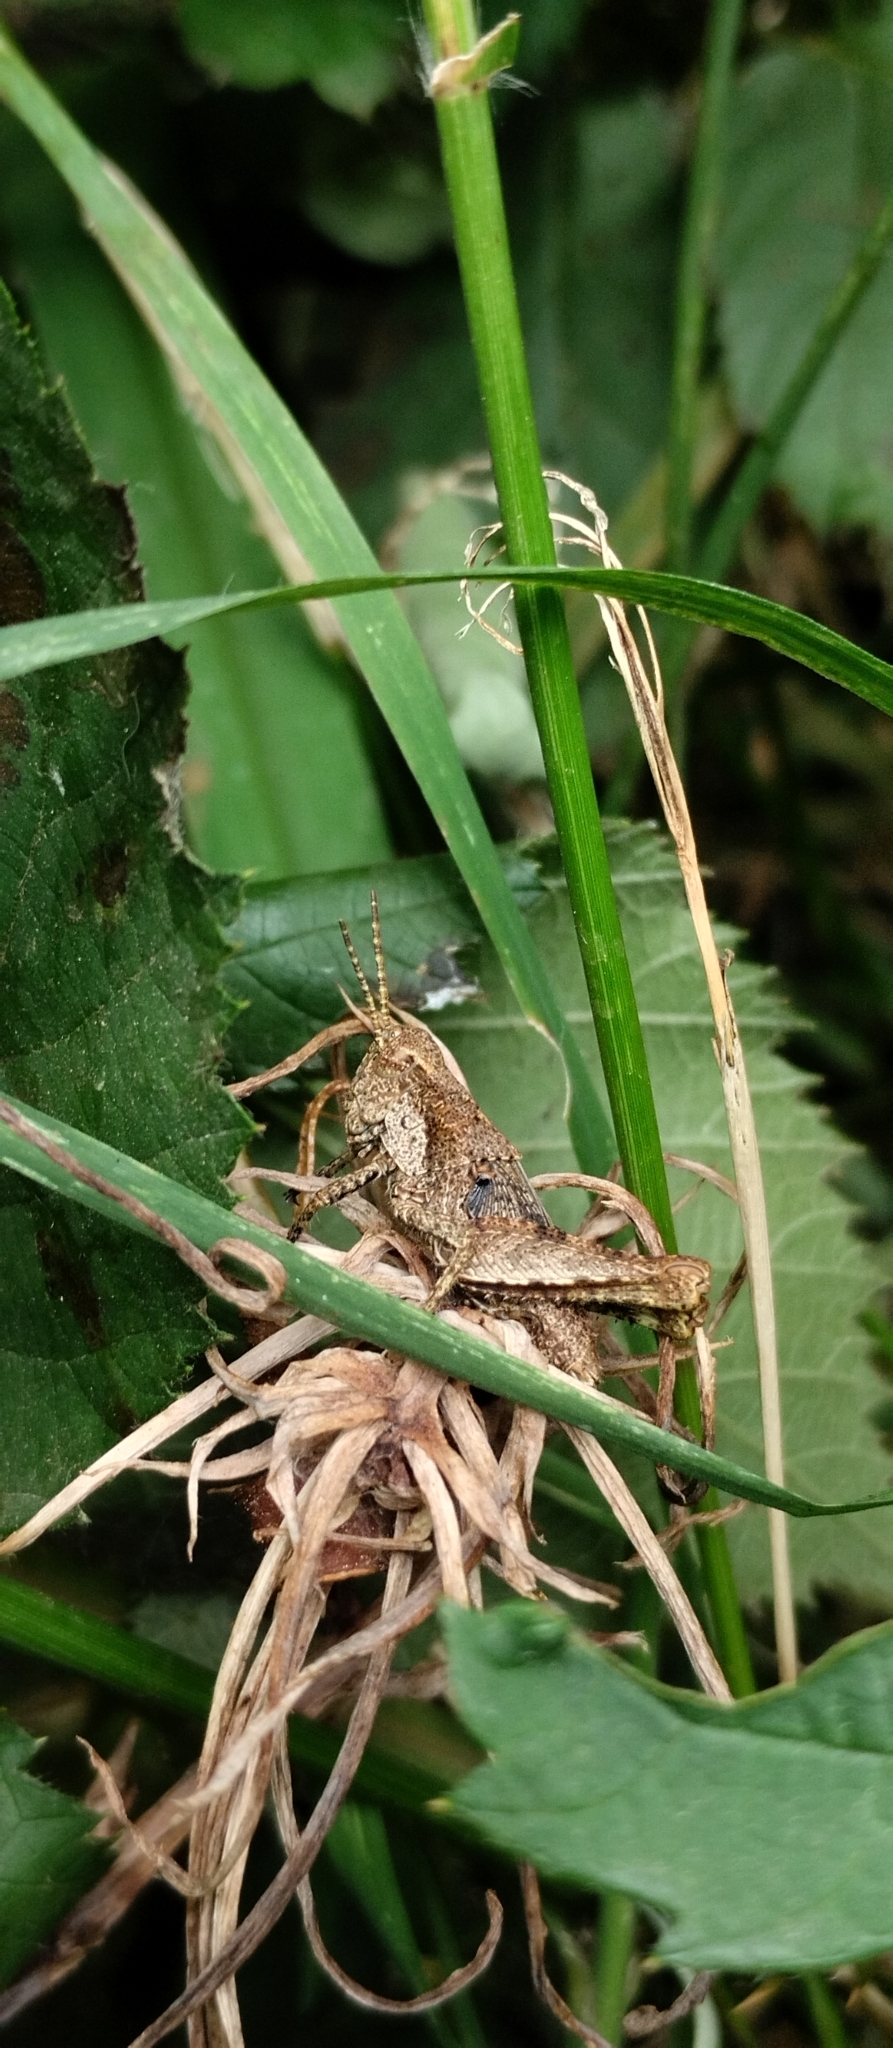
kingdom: Animalia
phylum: Arthropoda
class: Insecta
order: Orthoptera
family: Acrididae
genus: Ronderosia
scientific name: Ronderosia bergii
